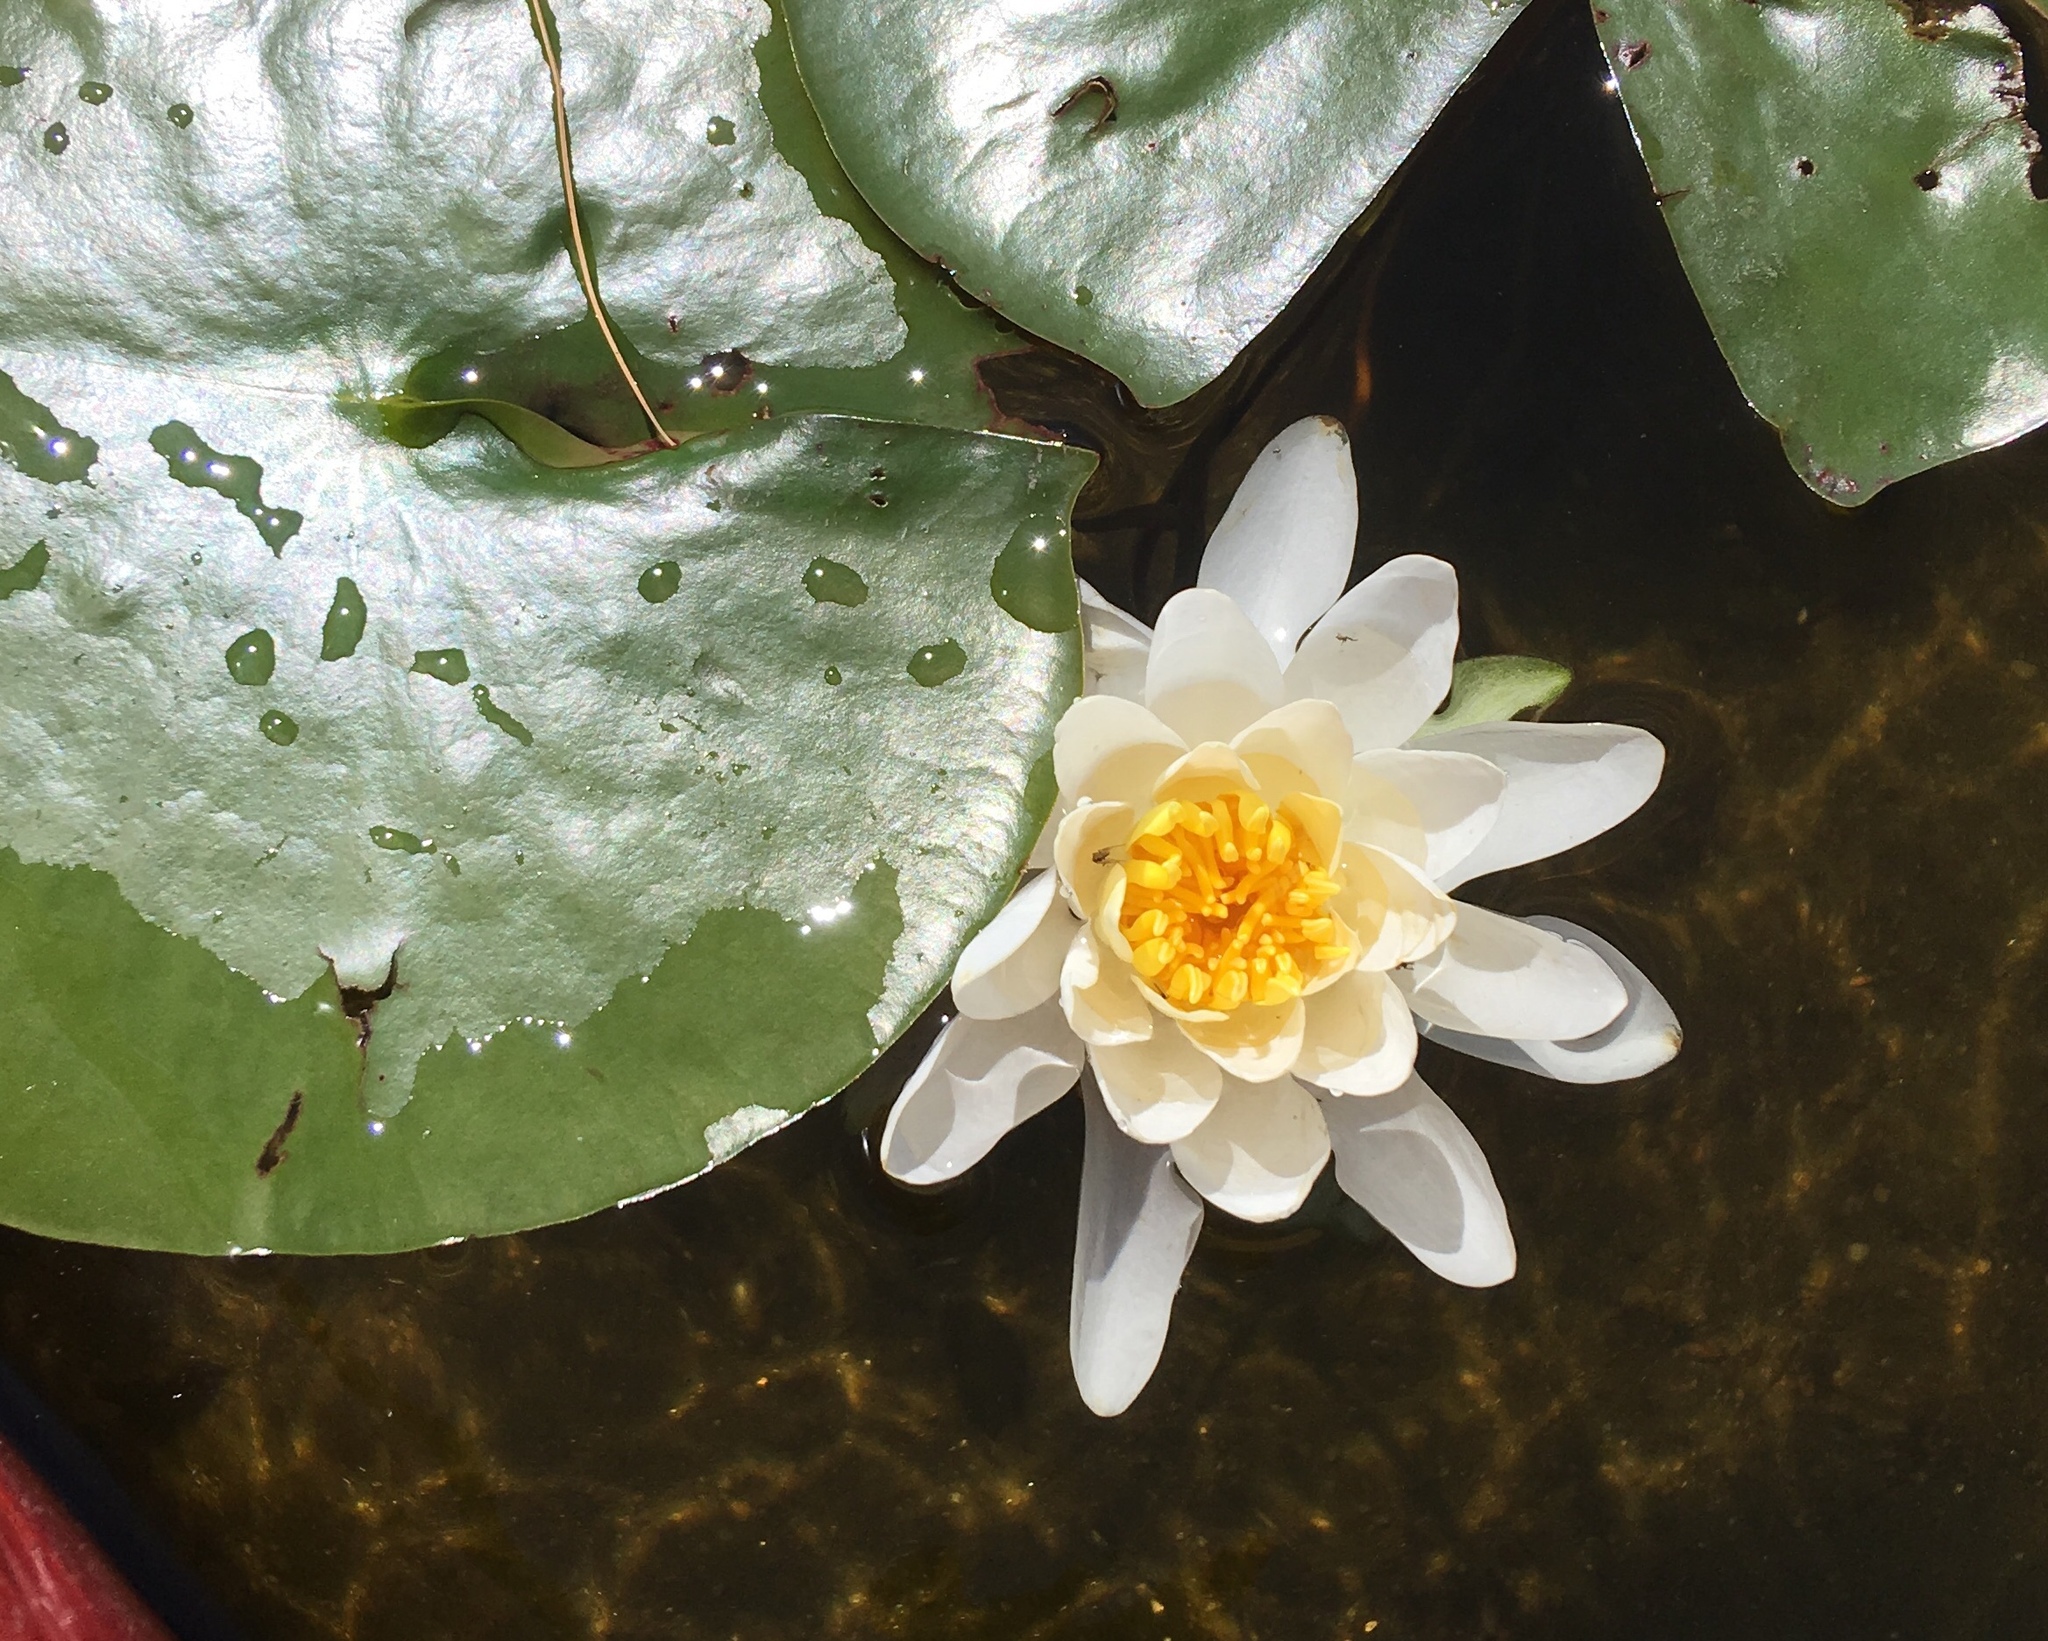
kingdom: Plantae
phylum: Tracheophyta
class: Magnoliopsida
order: Nymphaeales
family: Nymphaeaceae
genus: Nymphaea
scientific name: Nymphaea odorata
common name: Fragrant water-lily
